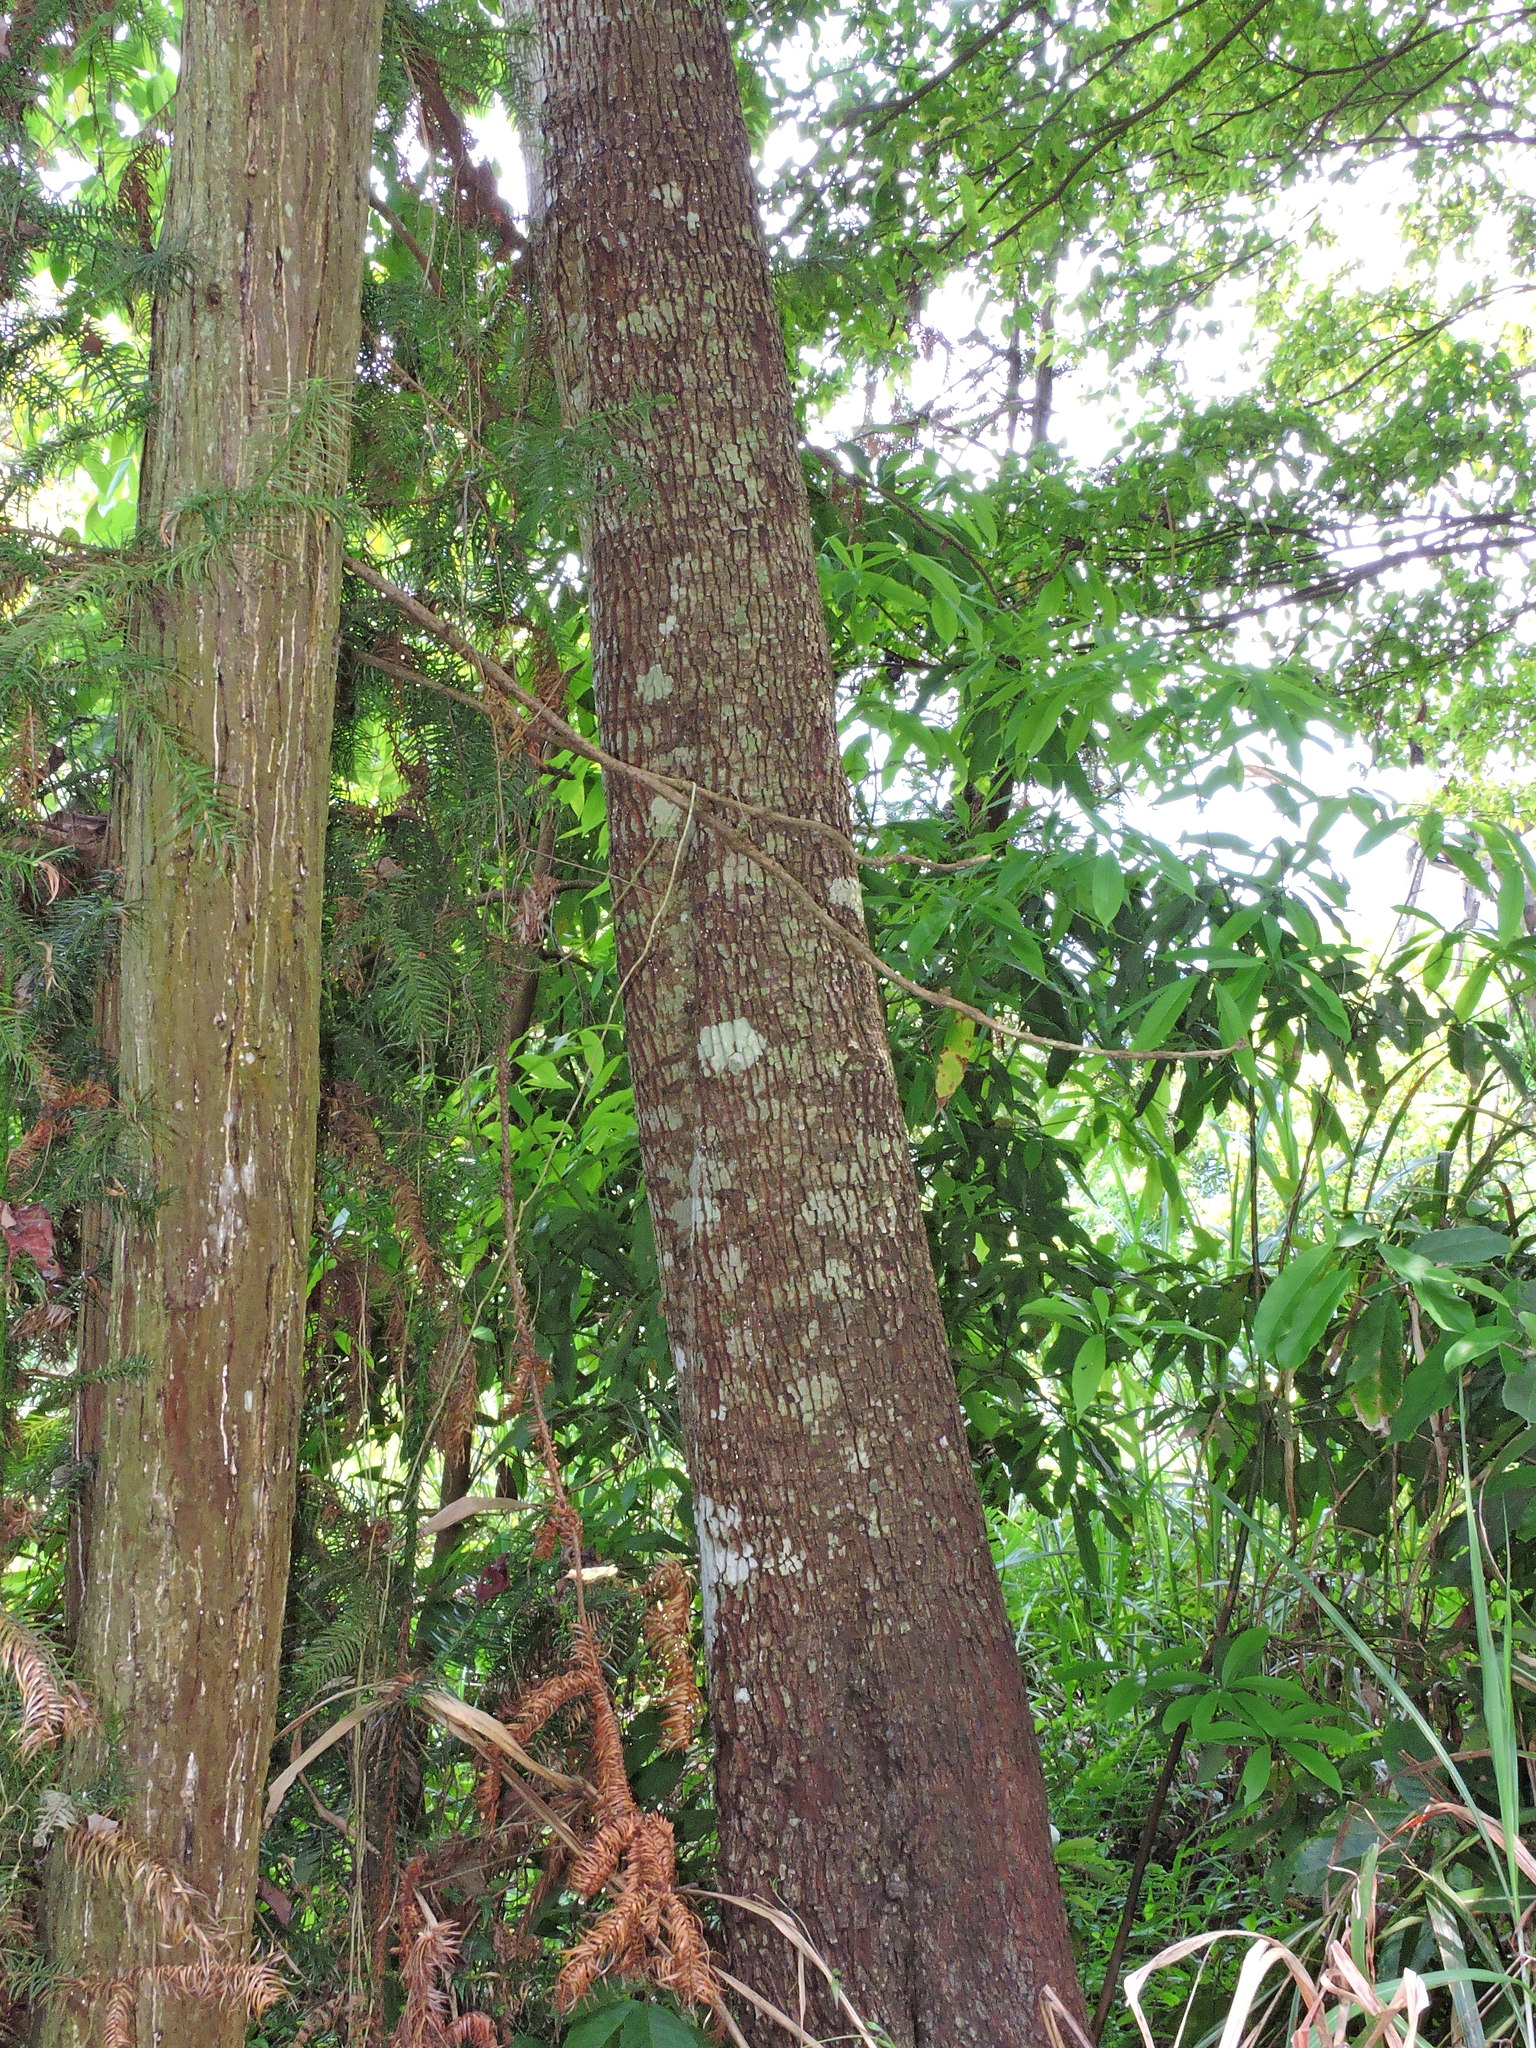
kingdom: Plantae
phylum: Tracheophyta
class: Magnoliopsida
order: Ericales
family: Ebenaceae
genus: Diospyros
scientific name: Diospyros japonica
